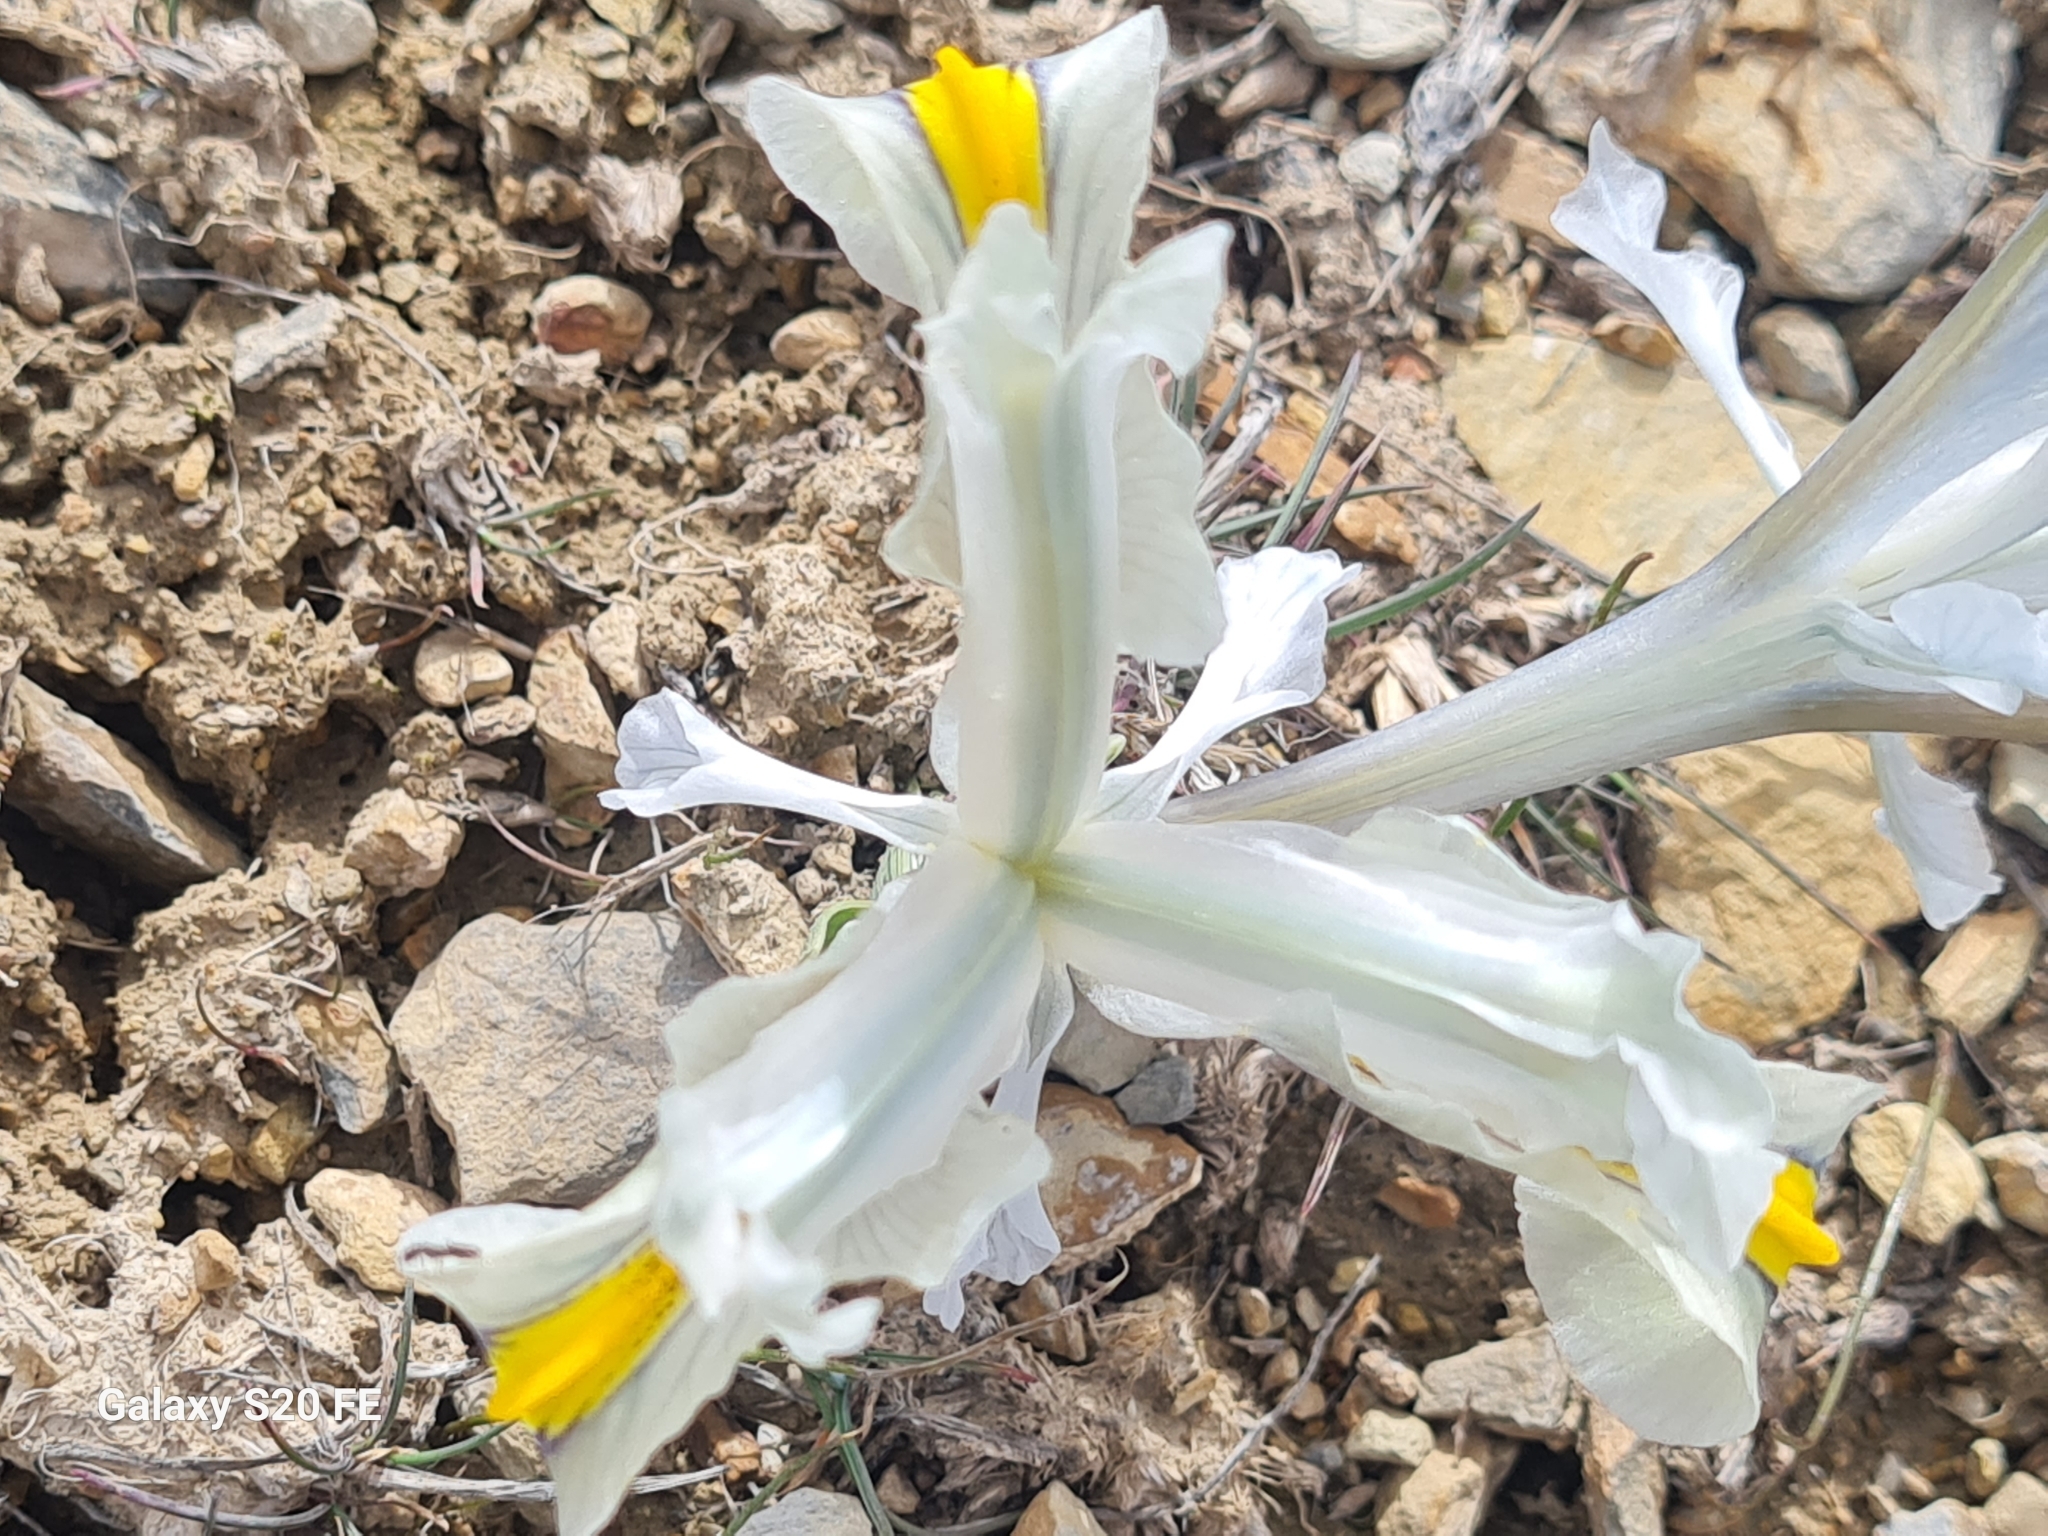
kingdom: Plantae
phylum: Tracheophyta
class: Liliopsida
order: Asparagales
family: Iridaceae
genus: Iris
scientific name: Iris hymenospatha
